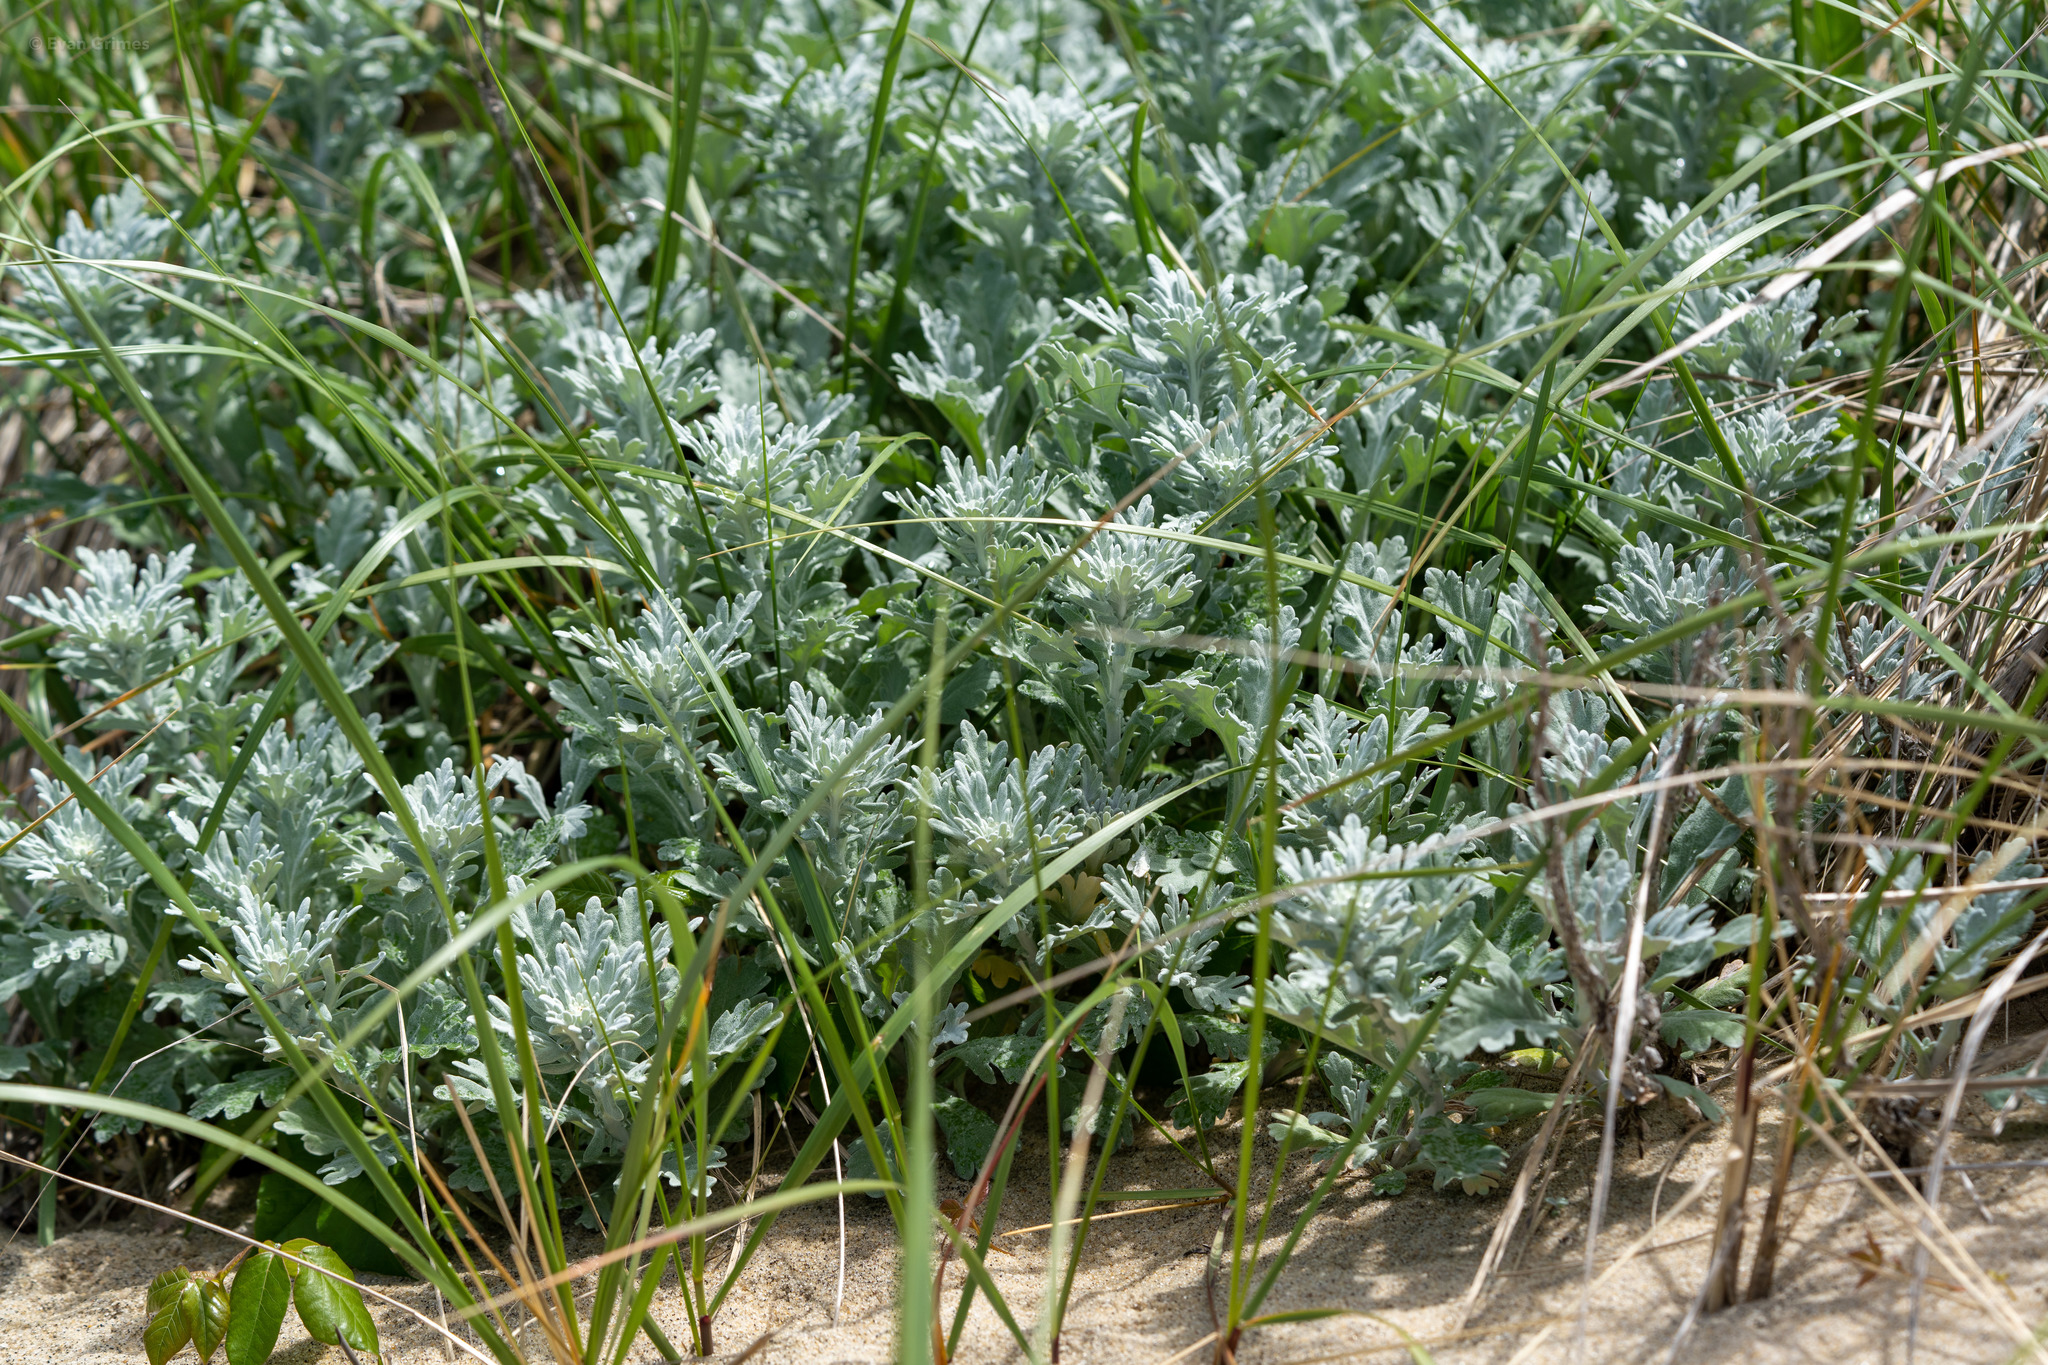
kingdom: Plantae
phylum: Tracheophyta
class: Magnoliopsida
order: Asterales
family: Asteraceae
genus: Artemisia
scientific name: Artemisia stelleriana
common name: Beach wormwood
